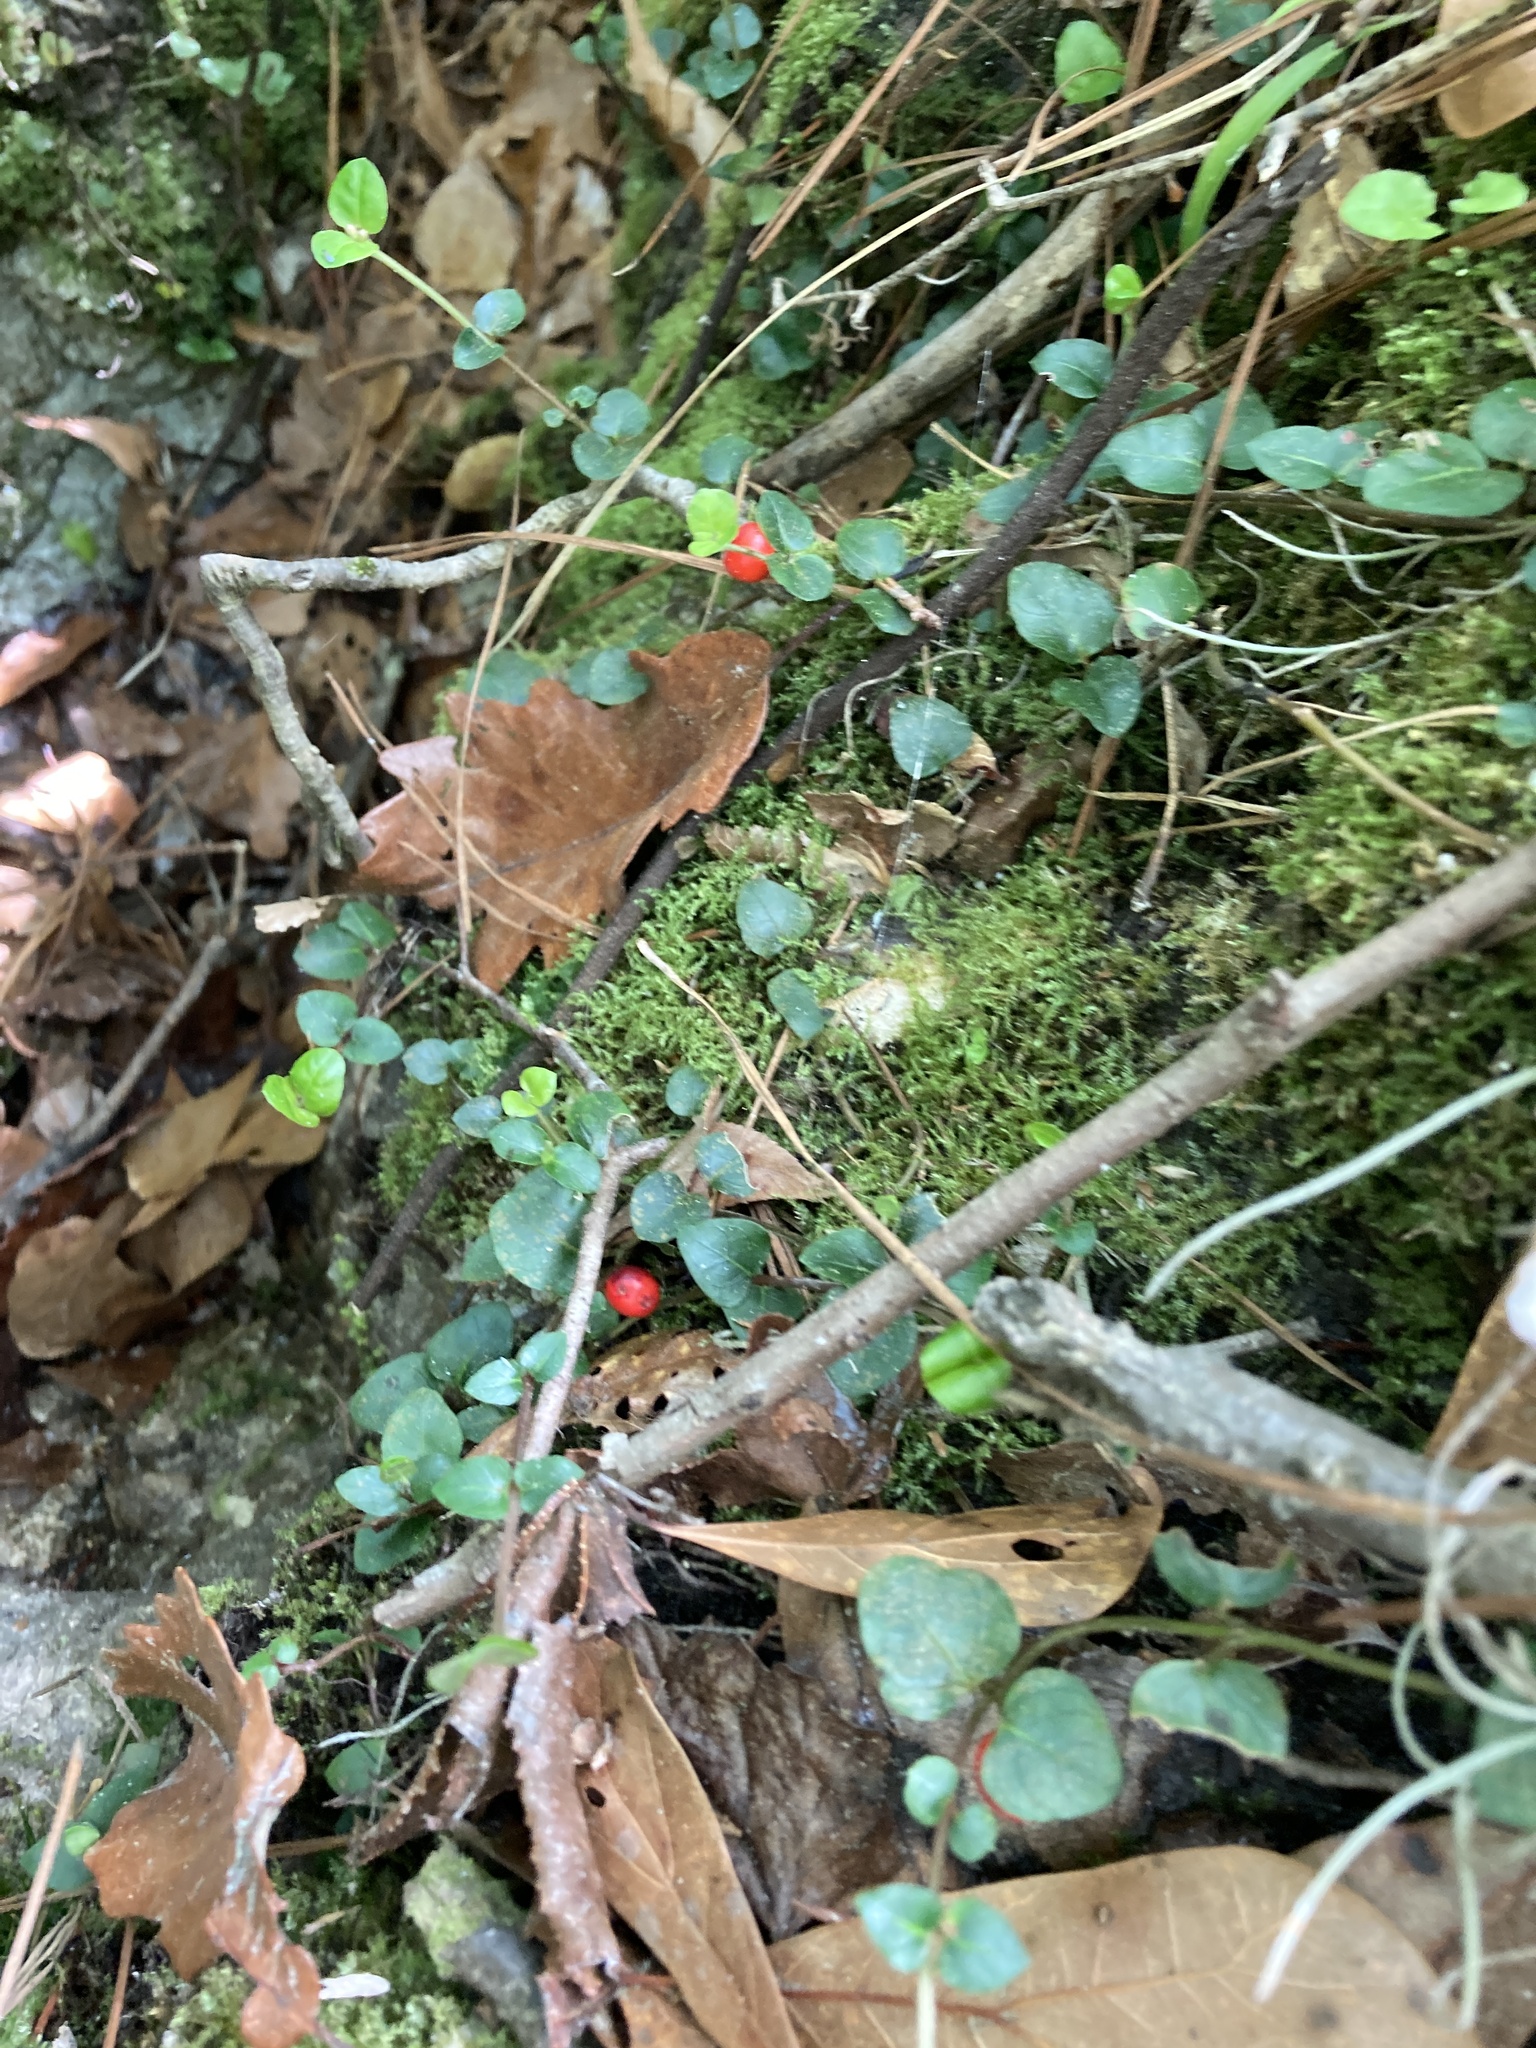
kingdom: Plantae
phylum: Tracheophyta
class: Magnoliopsida
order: Gentianales
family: Rubiaceae
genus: Mitchella
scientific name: Mitchella repens
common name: Partridge-berry
